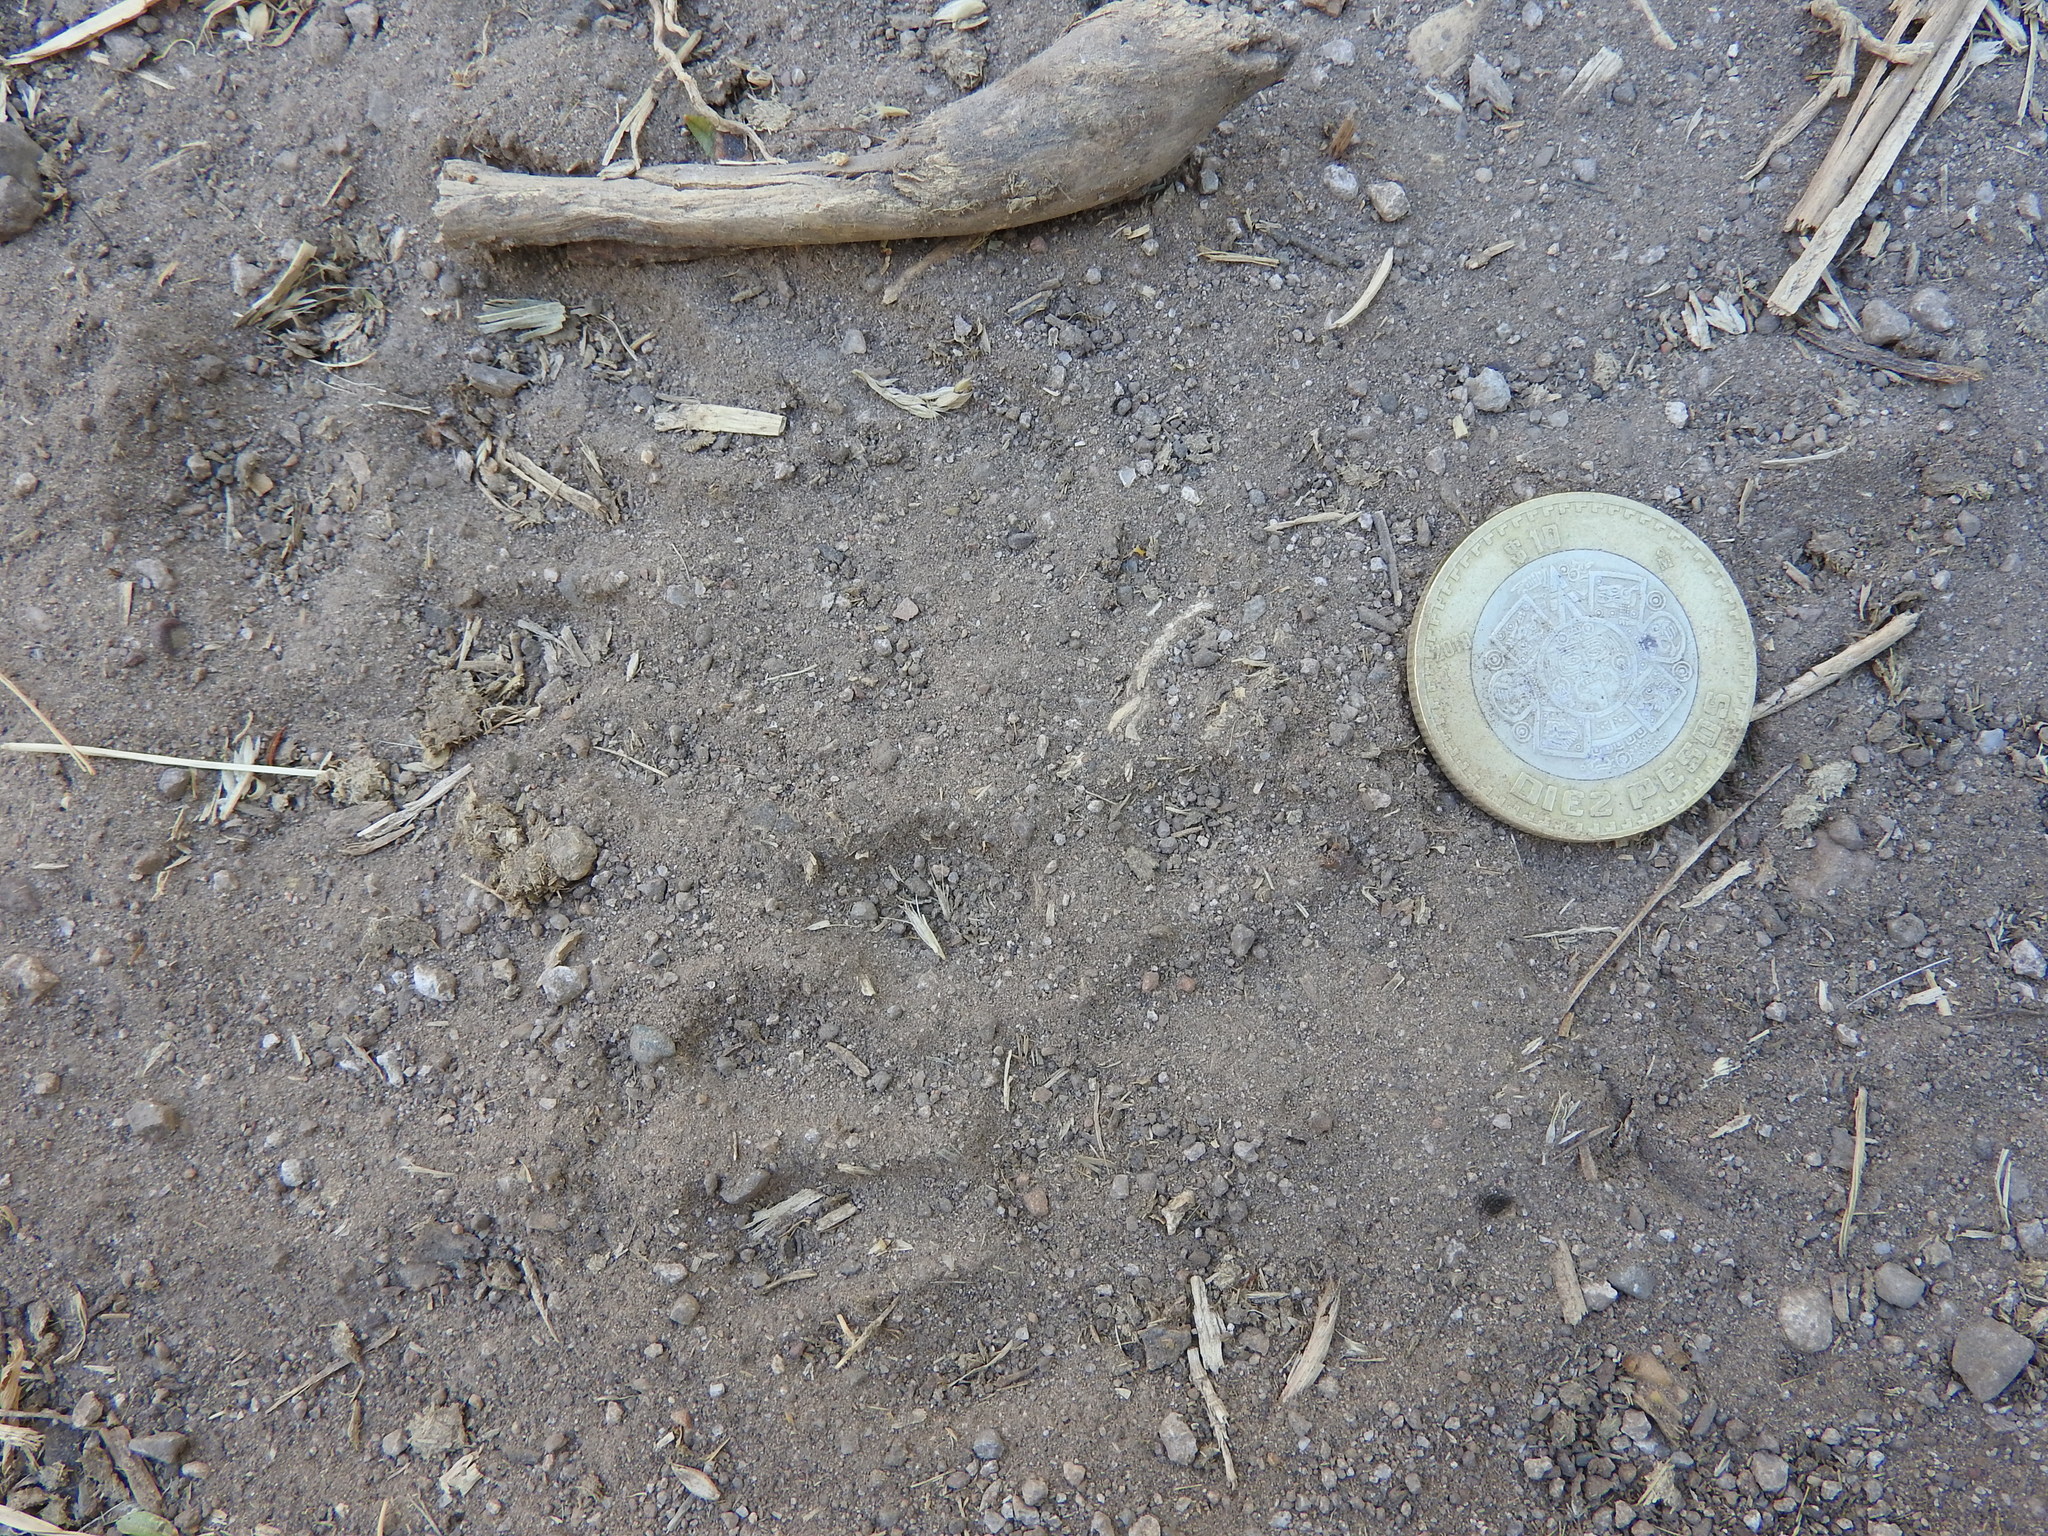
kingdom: Animalia
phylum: Chordata
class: Mammalia
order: Carnivora
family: Procyonidae
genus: Procyon
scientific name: Procyon lotor
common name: Raccoon
